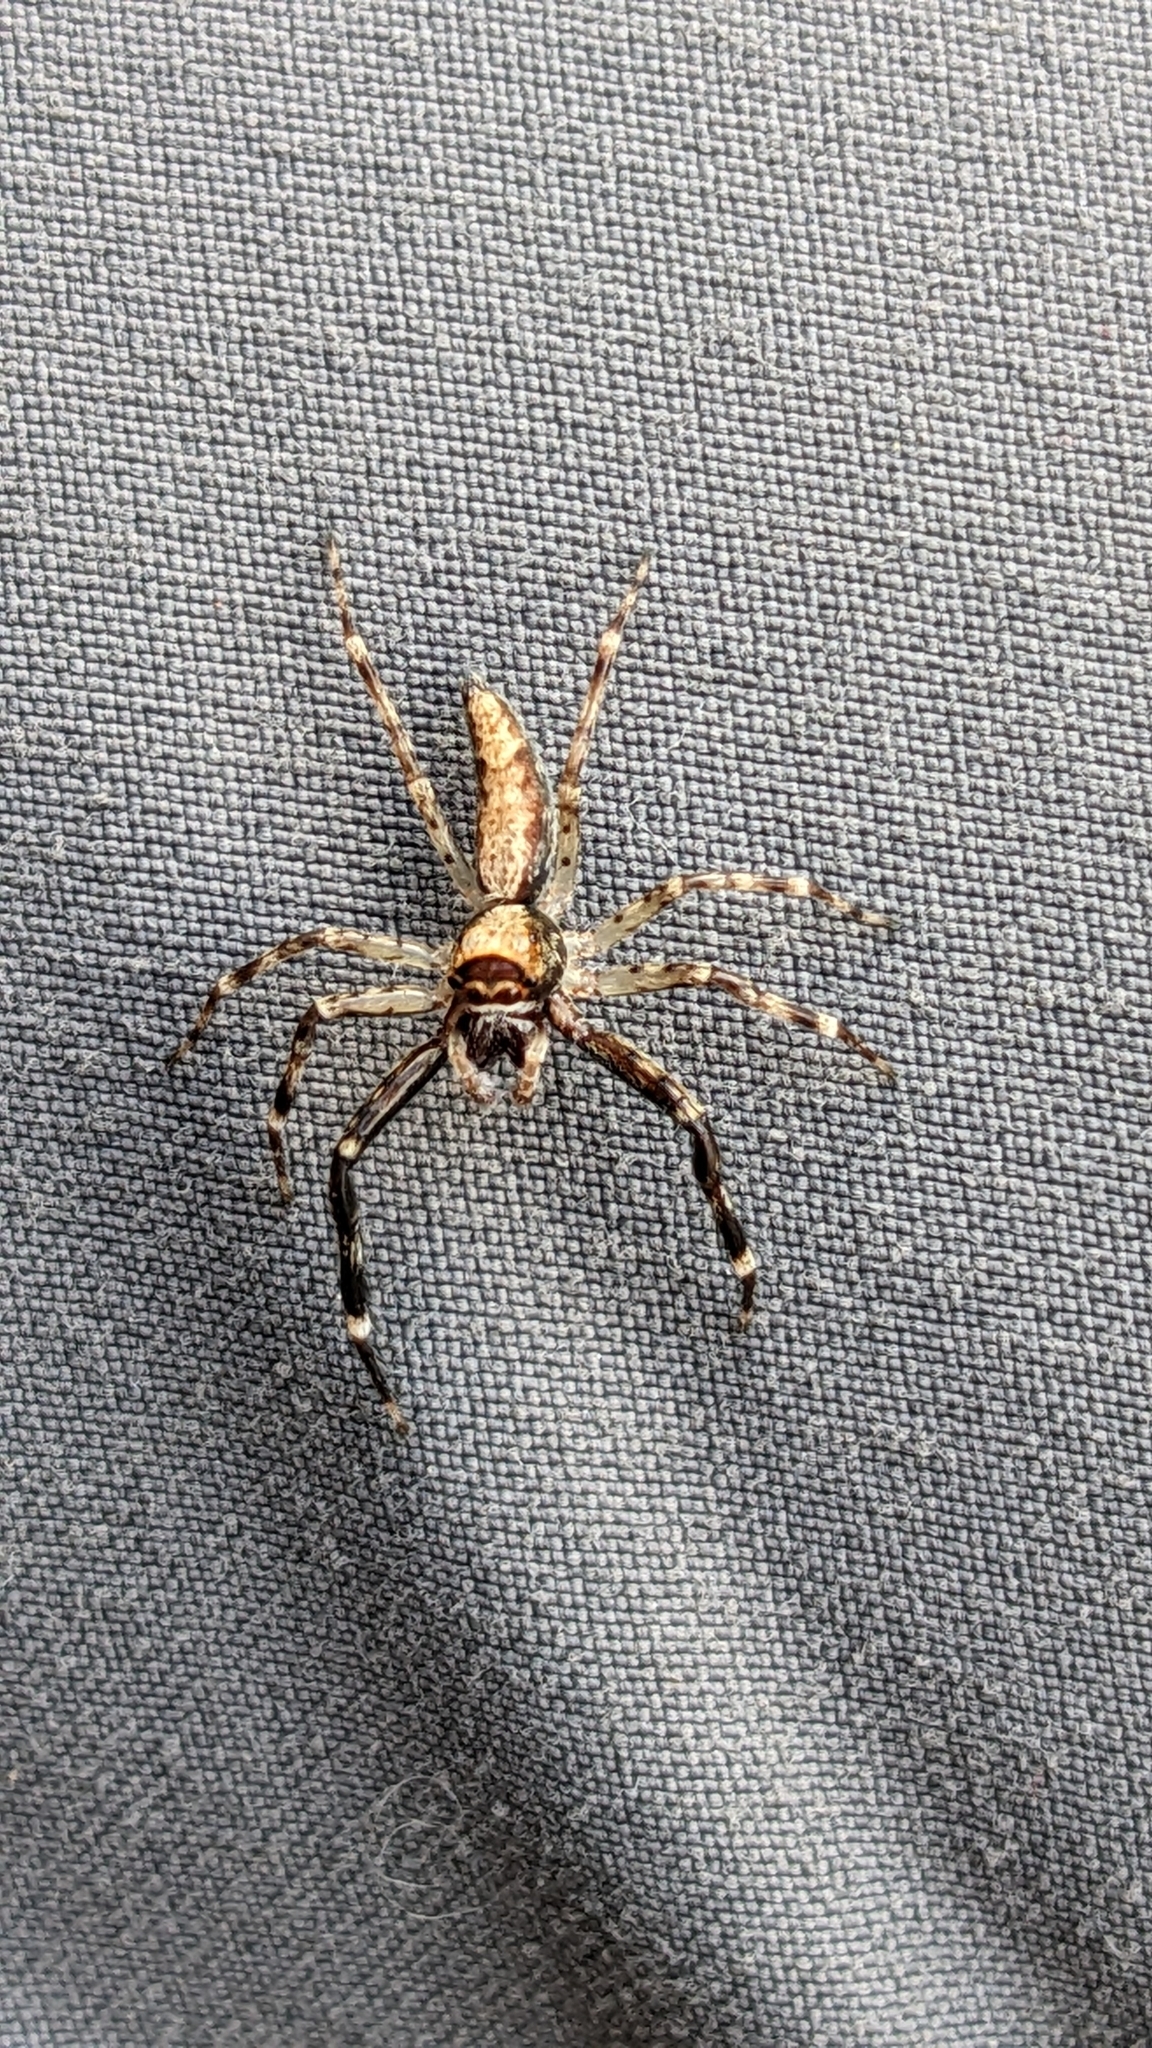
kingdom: Animalia
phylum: Arthropoda
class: Arachnida
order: Araneae
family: Salticidae
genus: Helpis
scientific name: Helpis minitabunda
